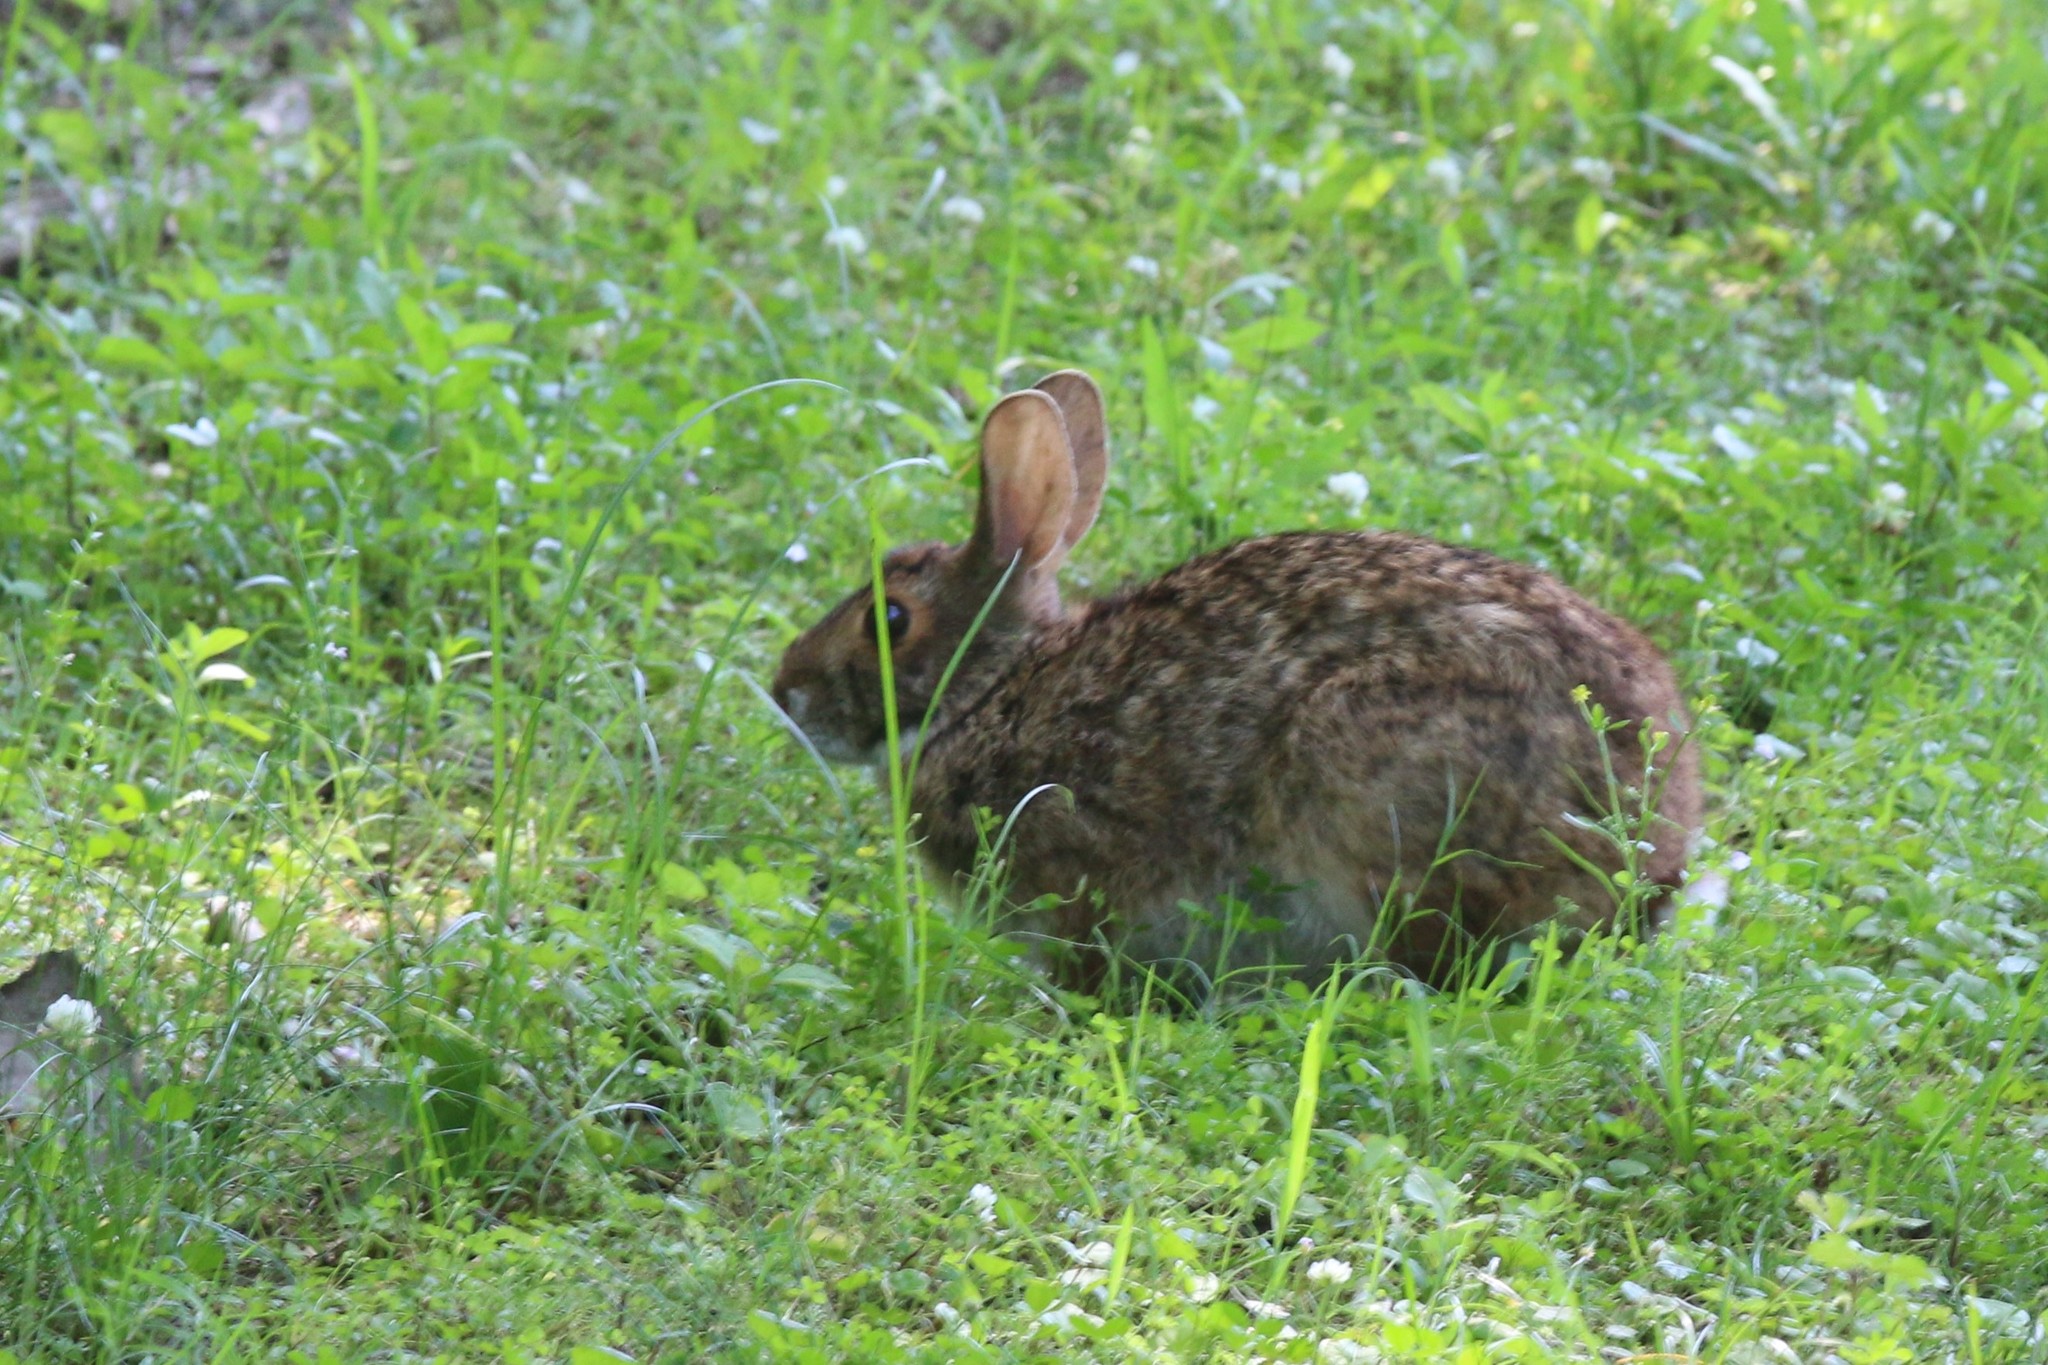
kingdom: Animalia
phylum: Chordata
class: Mammalia
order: Lagomorpha
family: Leporidae
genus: Sylvilagus
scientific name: Sylvilagus aquaticus
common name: Swamp rabbit
